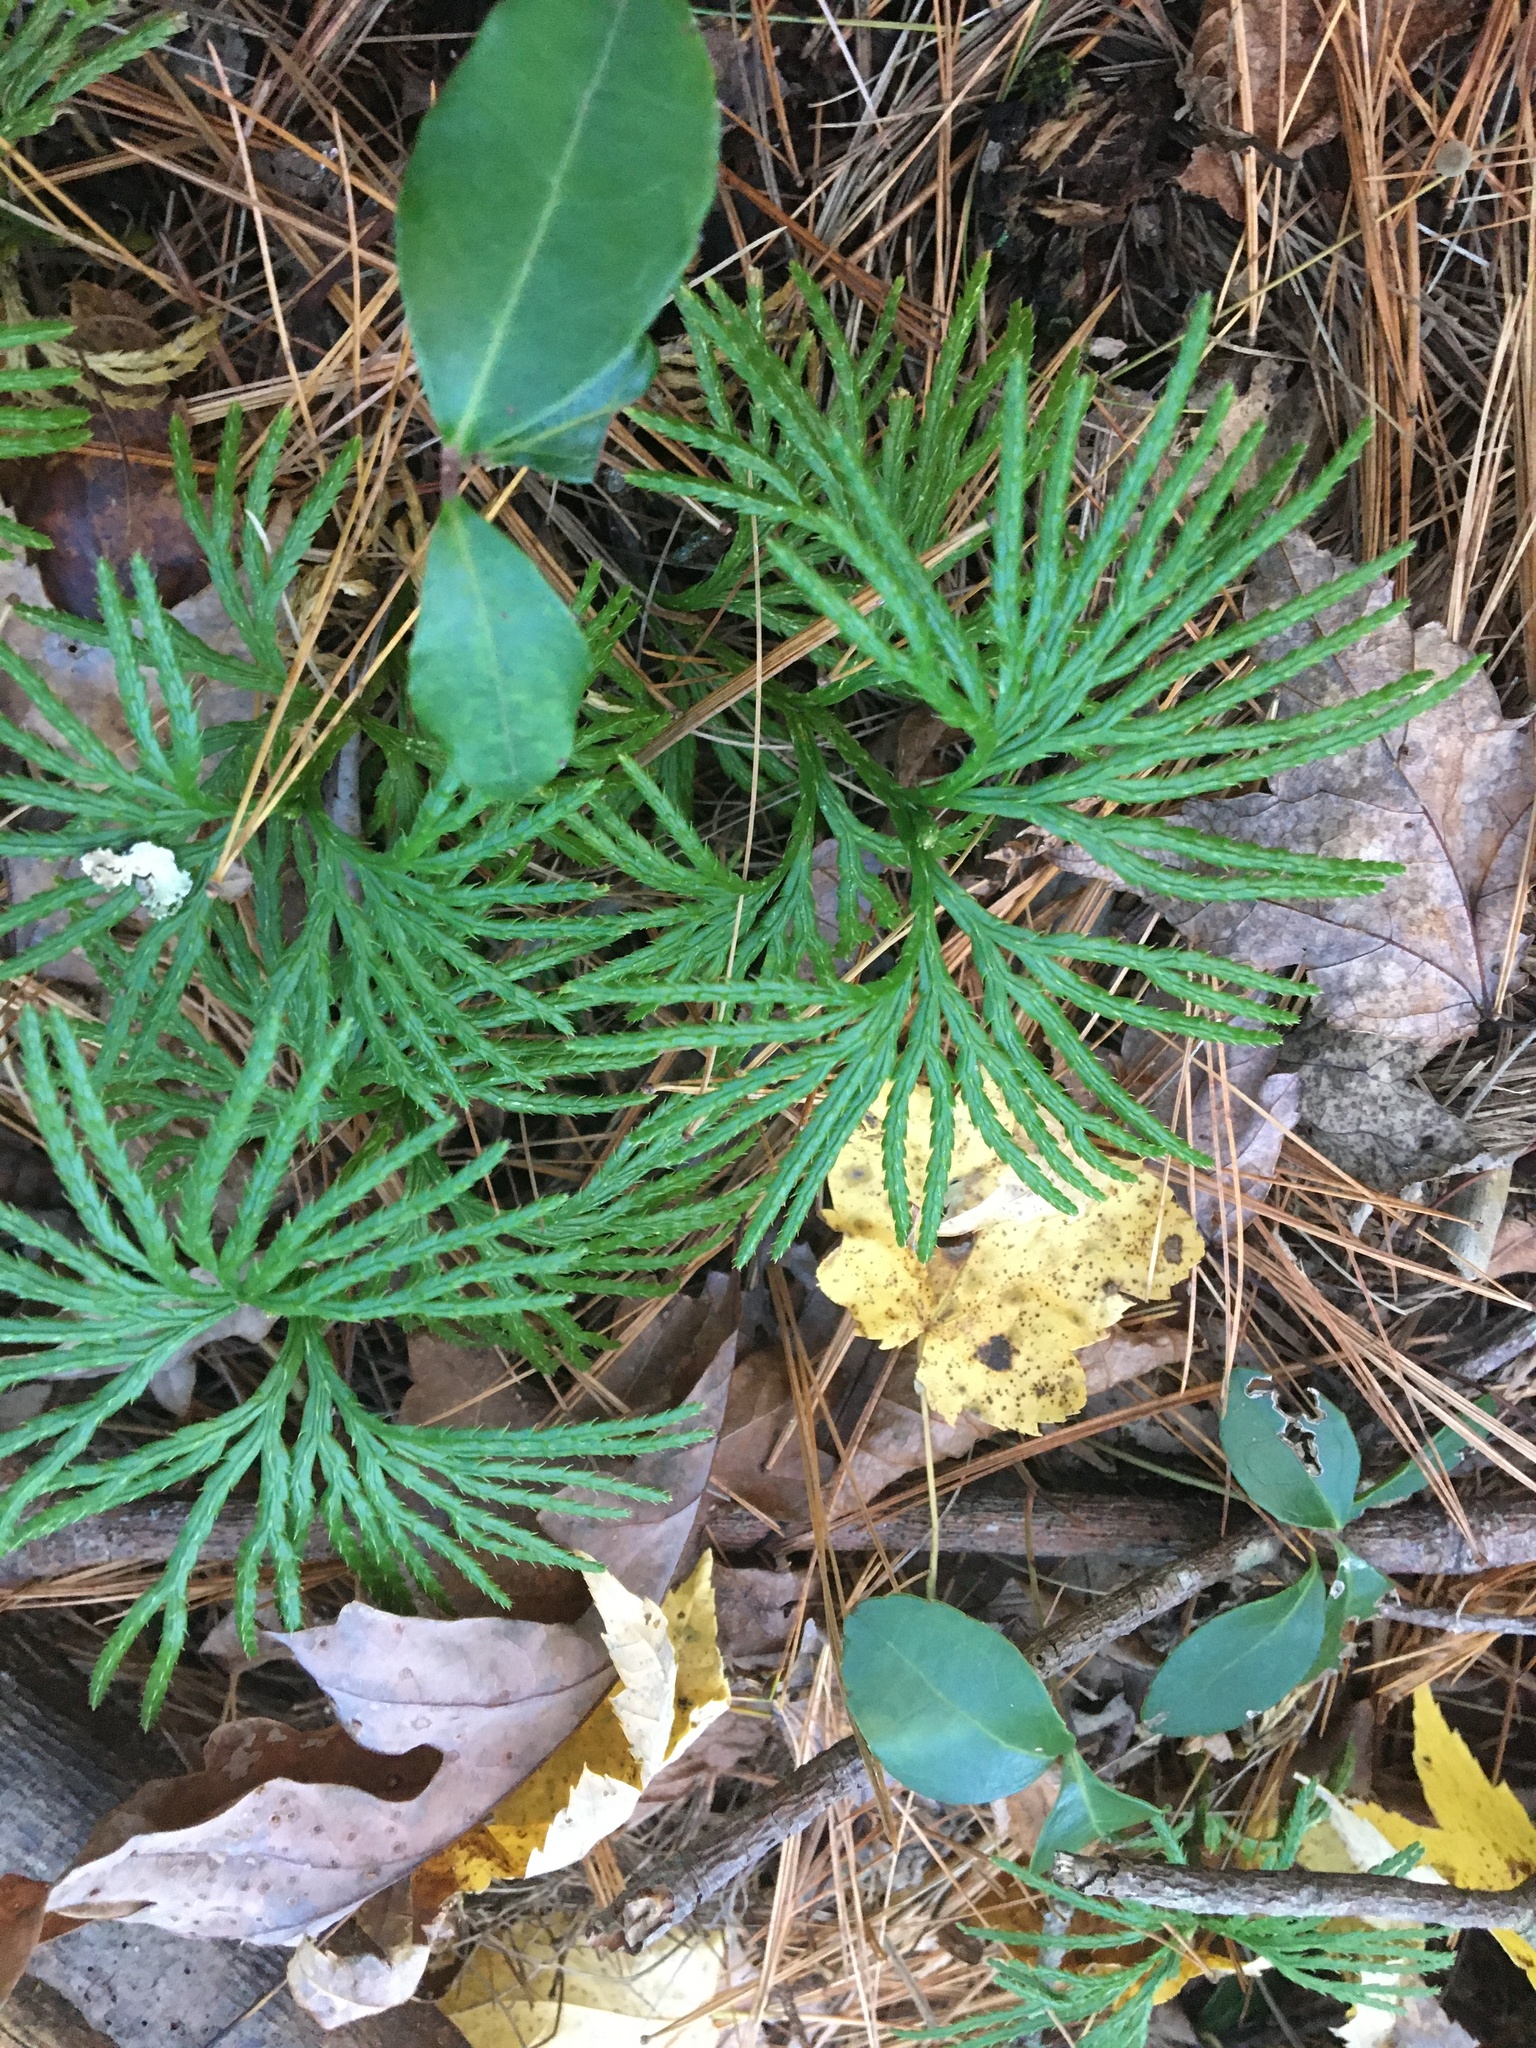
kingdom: Plantae
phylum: Tracheophyta
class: Lycopodiopsida
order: Lycopodiales
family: Lycopodiaceae
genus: Diphasiastrum
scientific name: Diphasiastrum digitatum
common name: Southern running-pine
